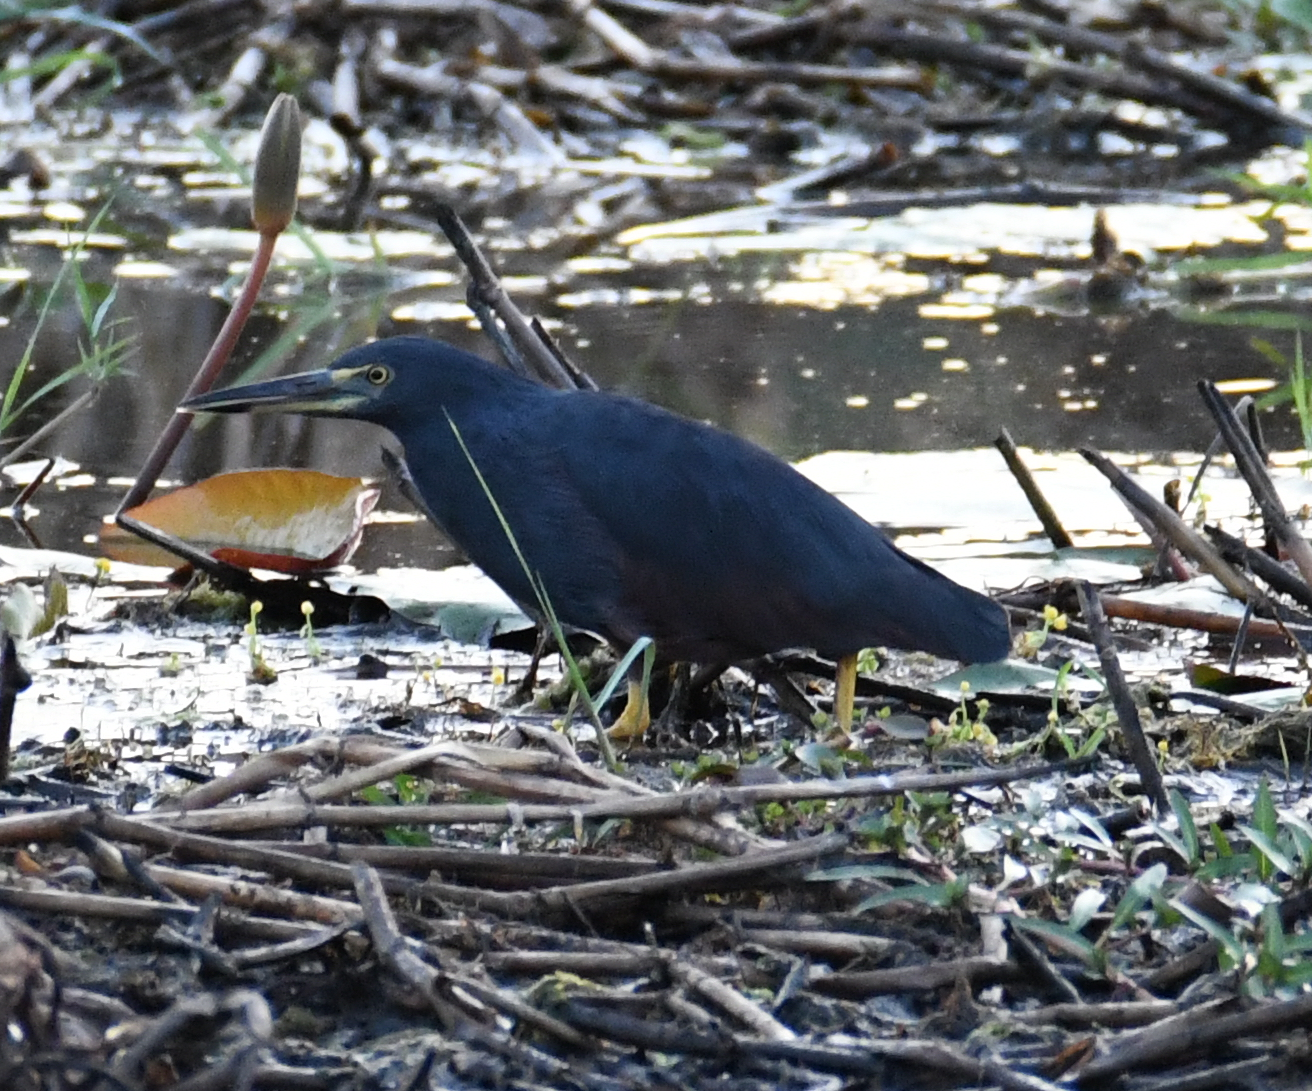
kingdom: Animalia
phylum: Chordata
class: Aves
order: Pelecaniformes
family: Ardeidae
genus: Ardeola
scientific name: Ardeola rufiventris
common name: Rufous-bellied heron
